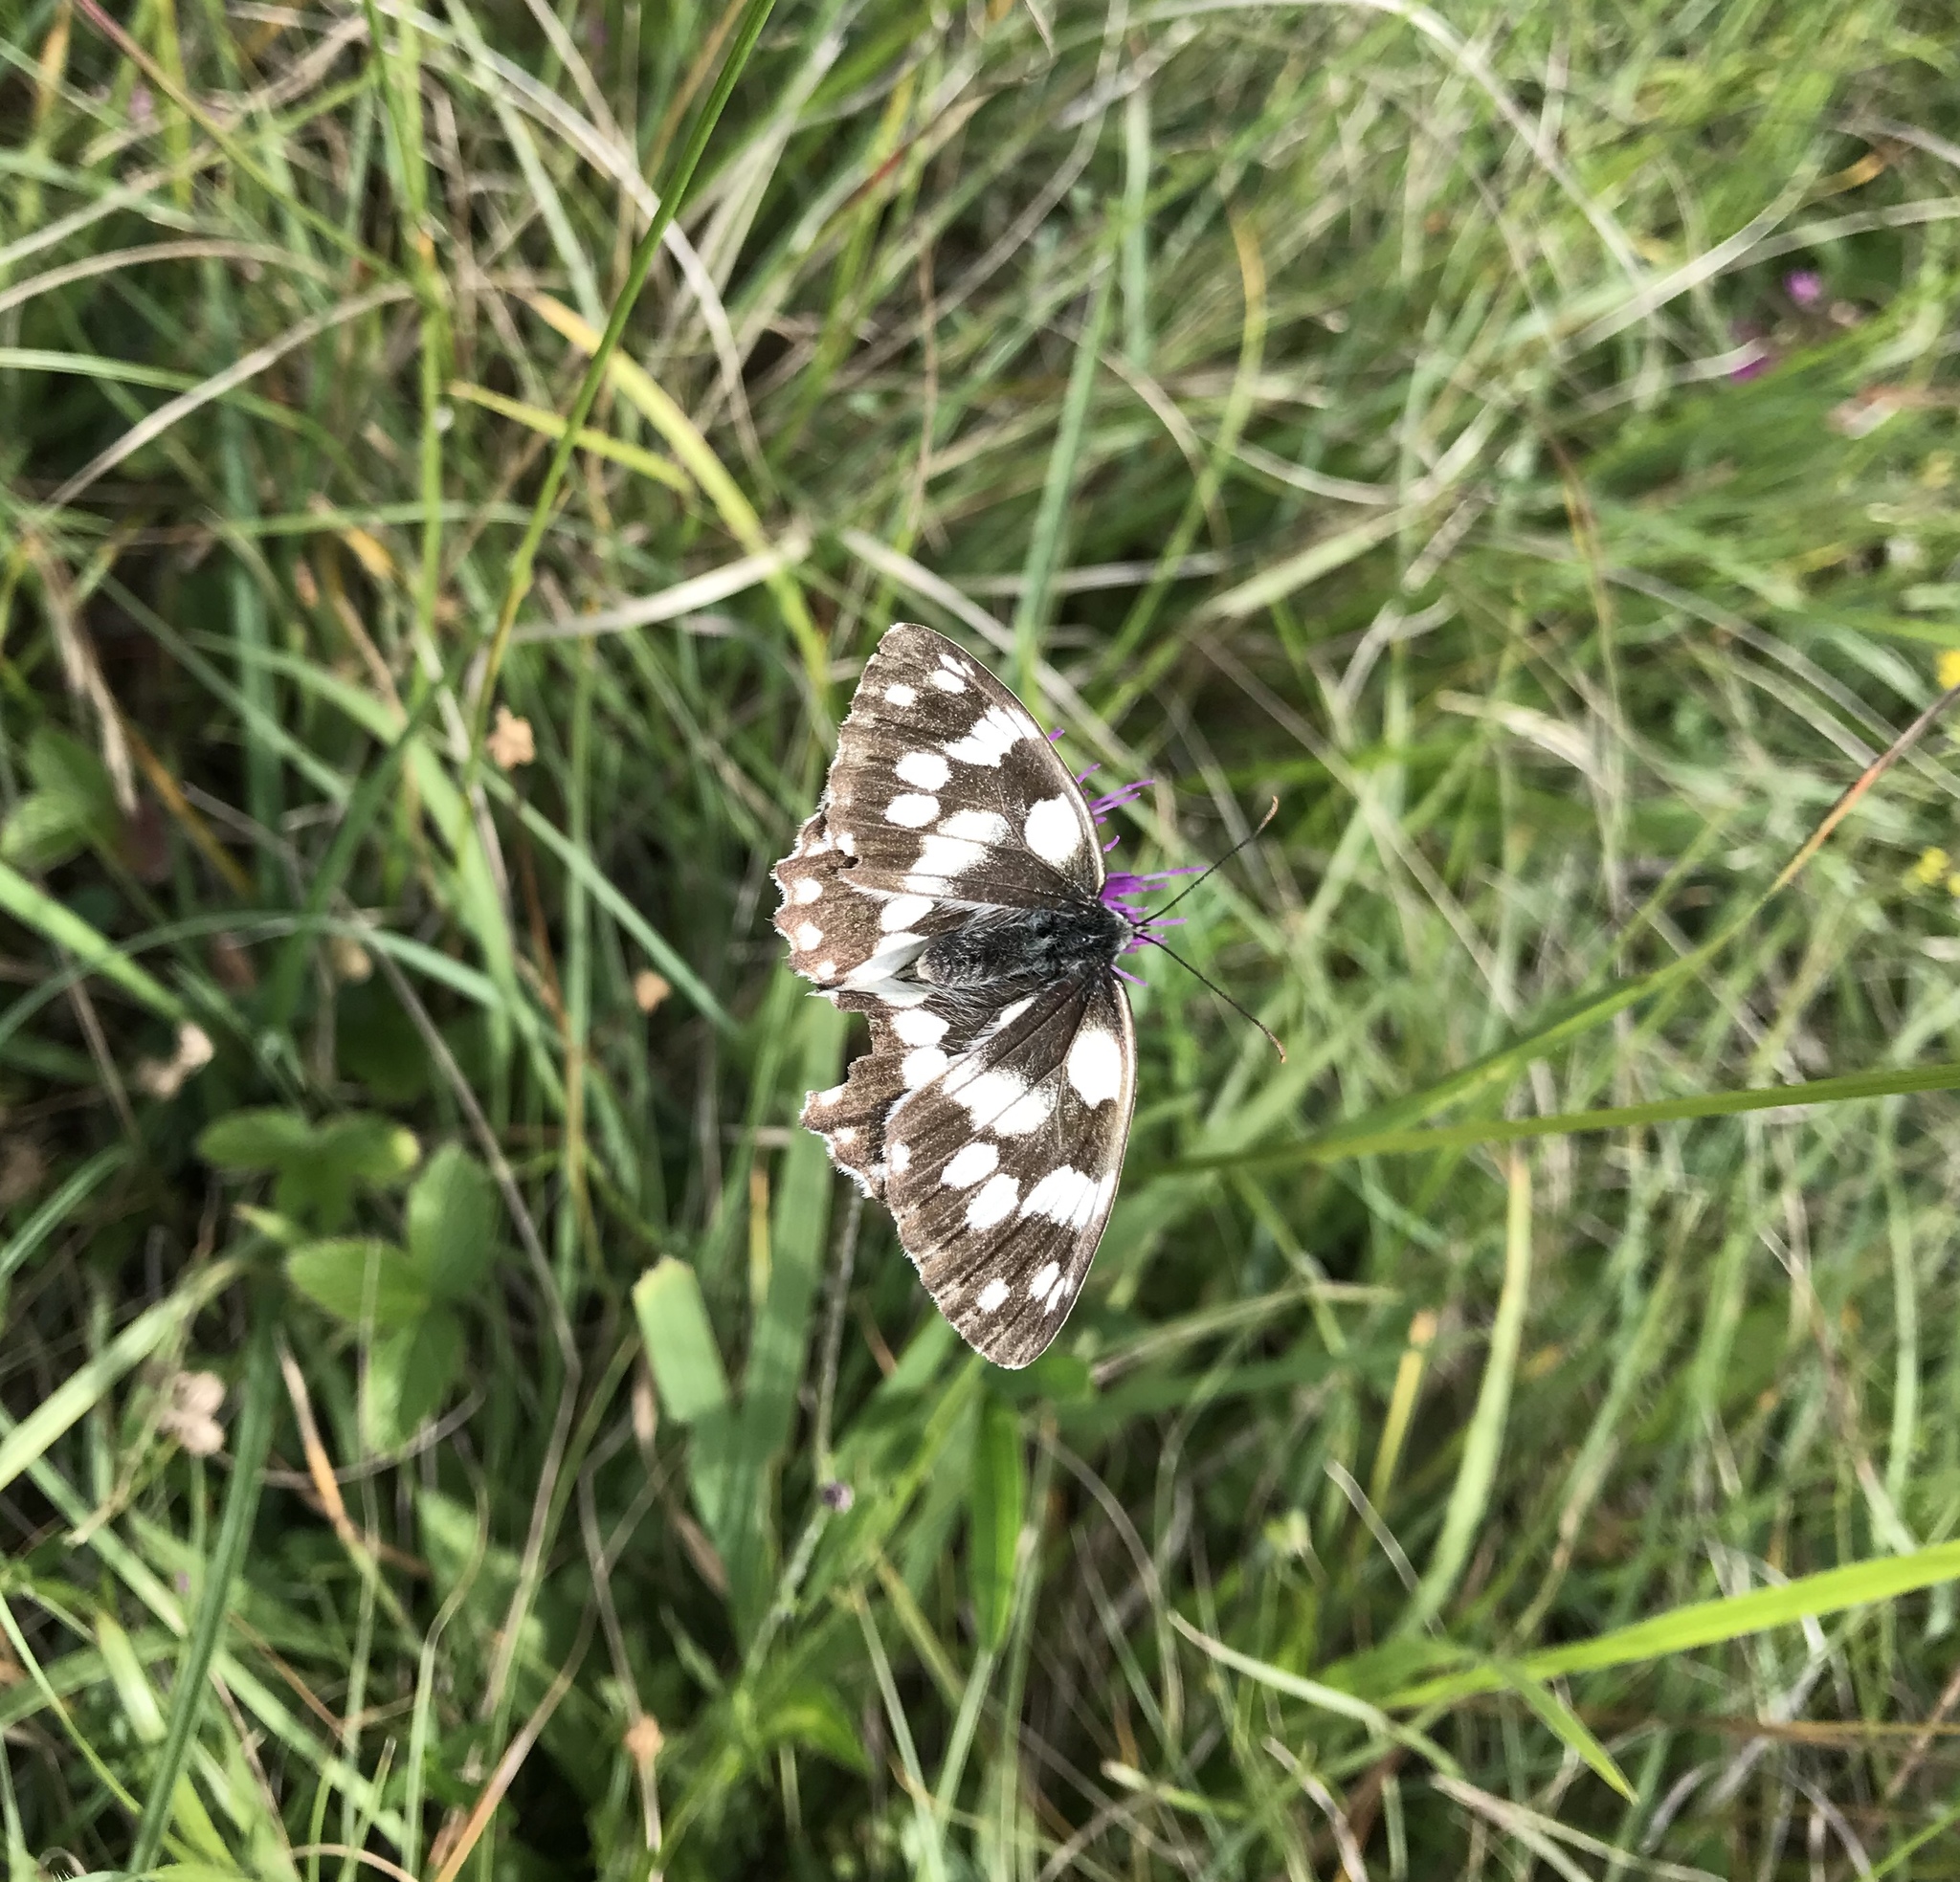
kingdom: Animalia
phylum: Arthropoda
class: Insecta
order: Lepidoptera
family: Nymphalidae
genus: Melanargia
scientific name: Melanargia galathea
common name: Marbled white
